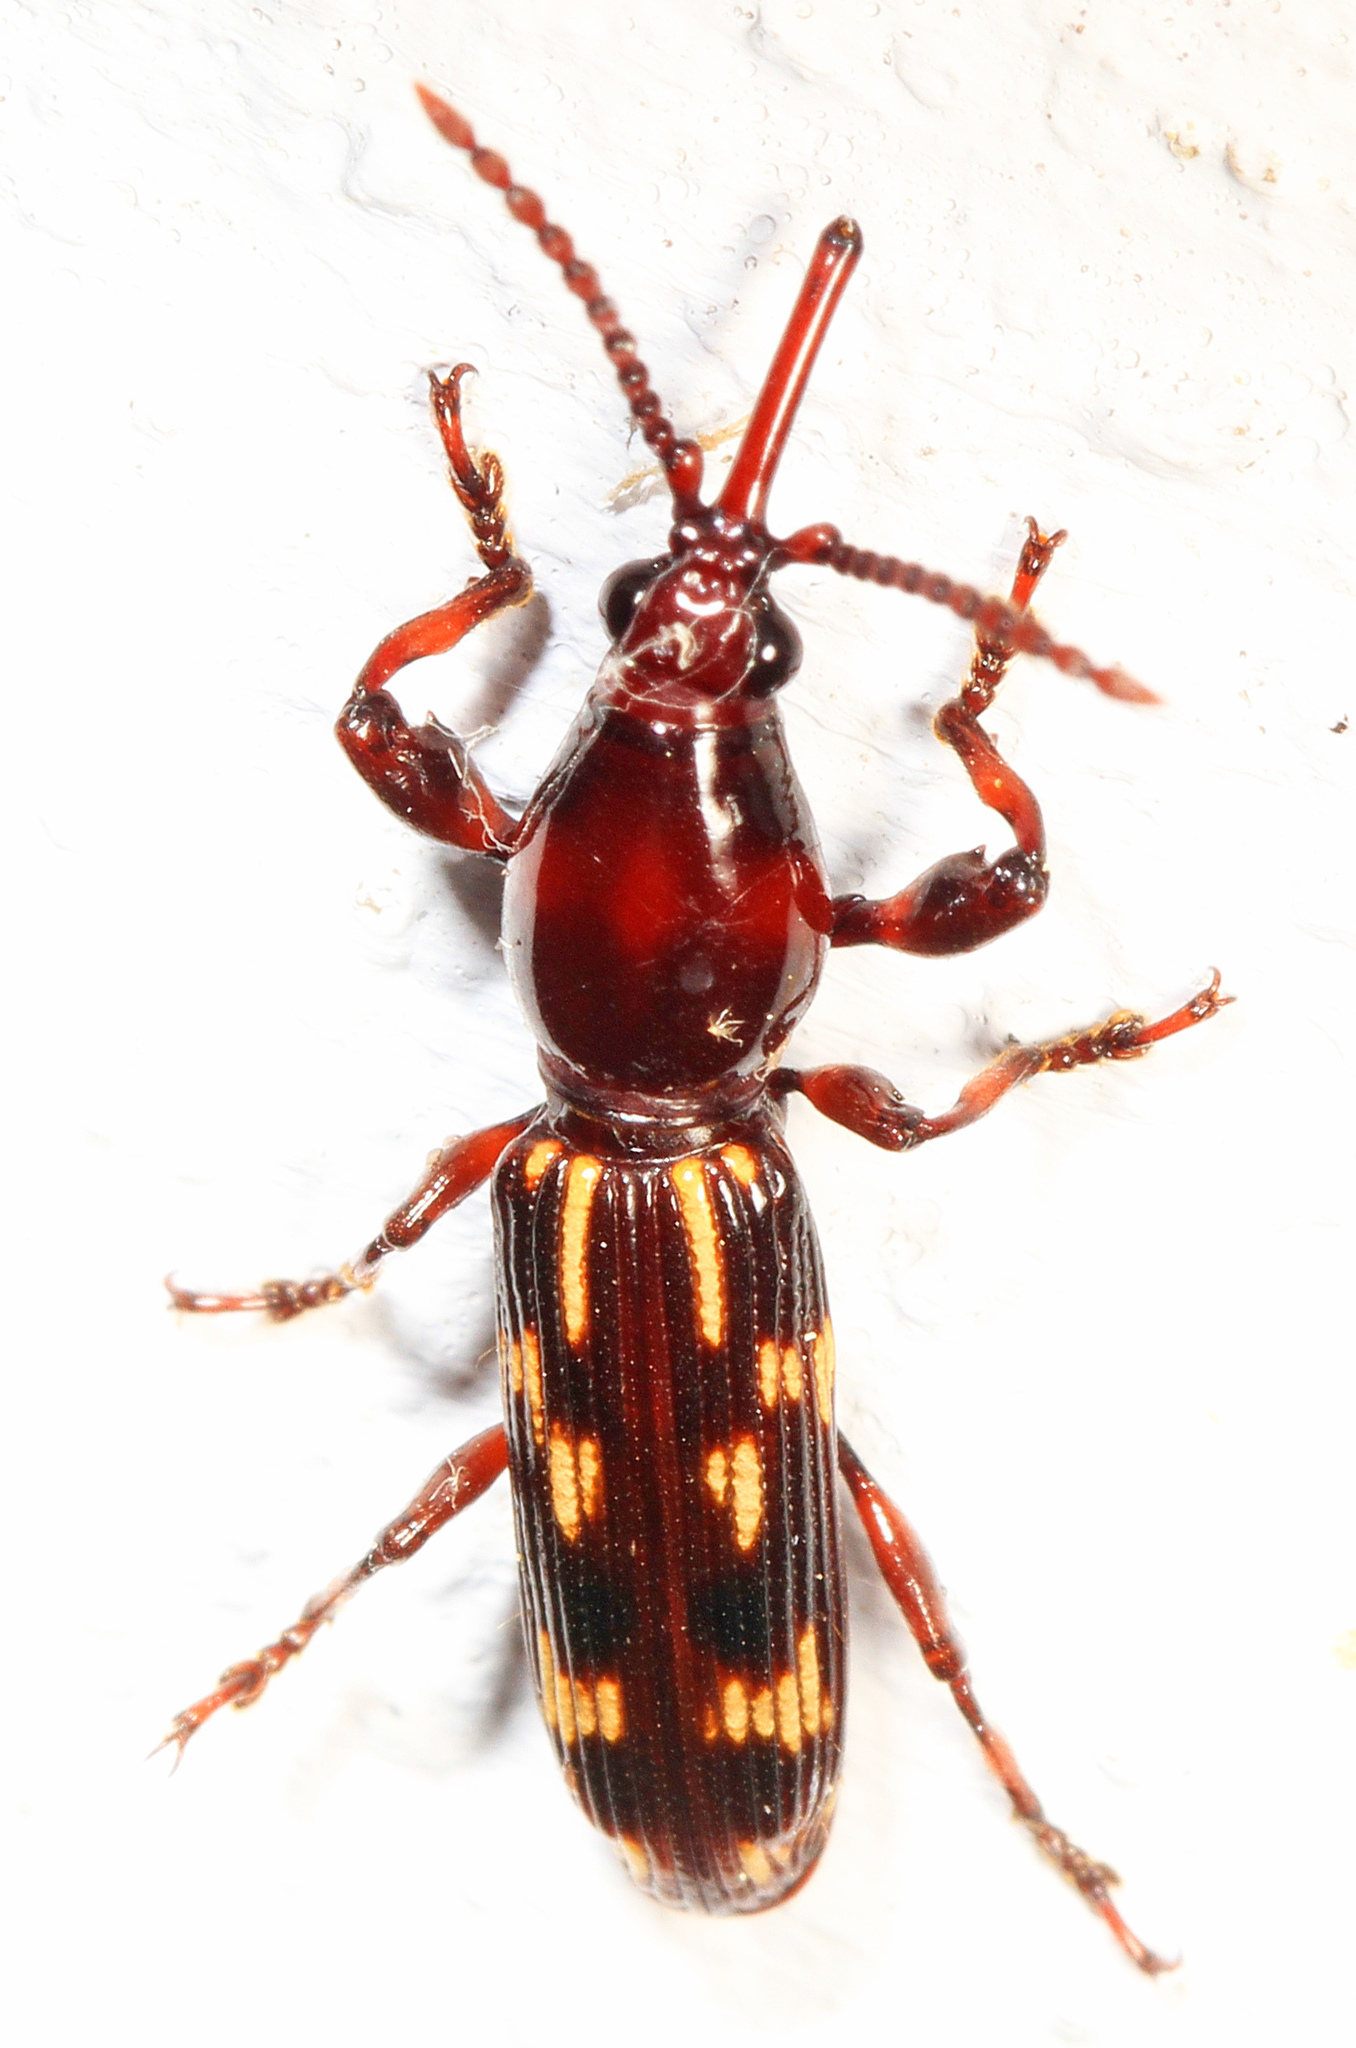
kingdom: Animalia
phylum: Arthropoda
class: Insecta
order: Coleoptera
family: Brentidae
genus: Arrenodes
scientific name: Arrenodes minutus
